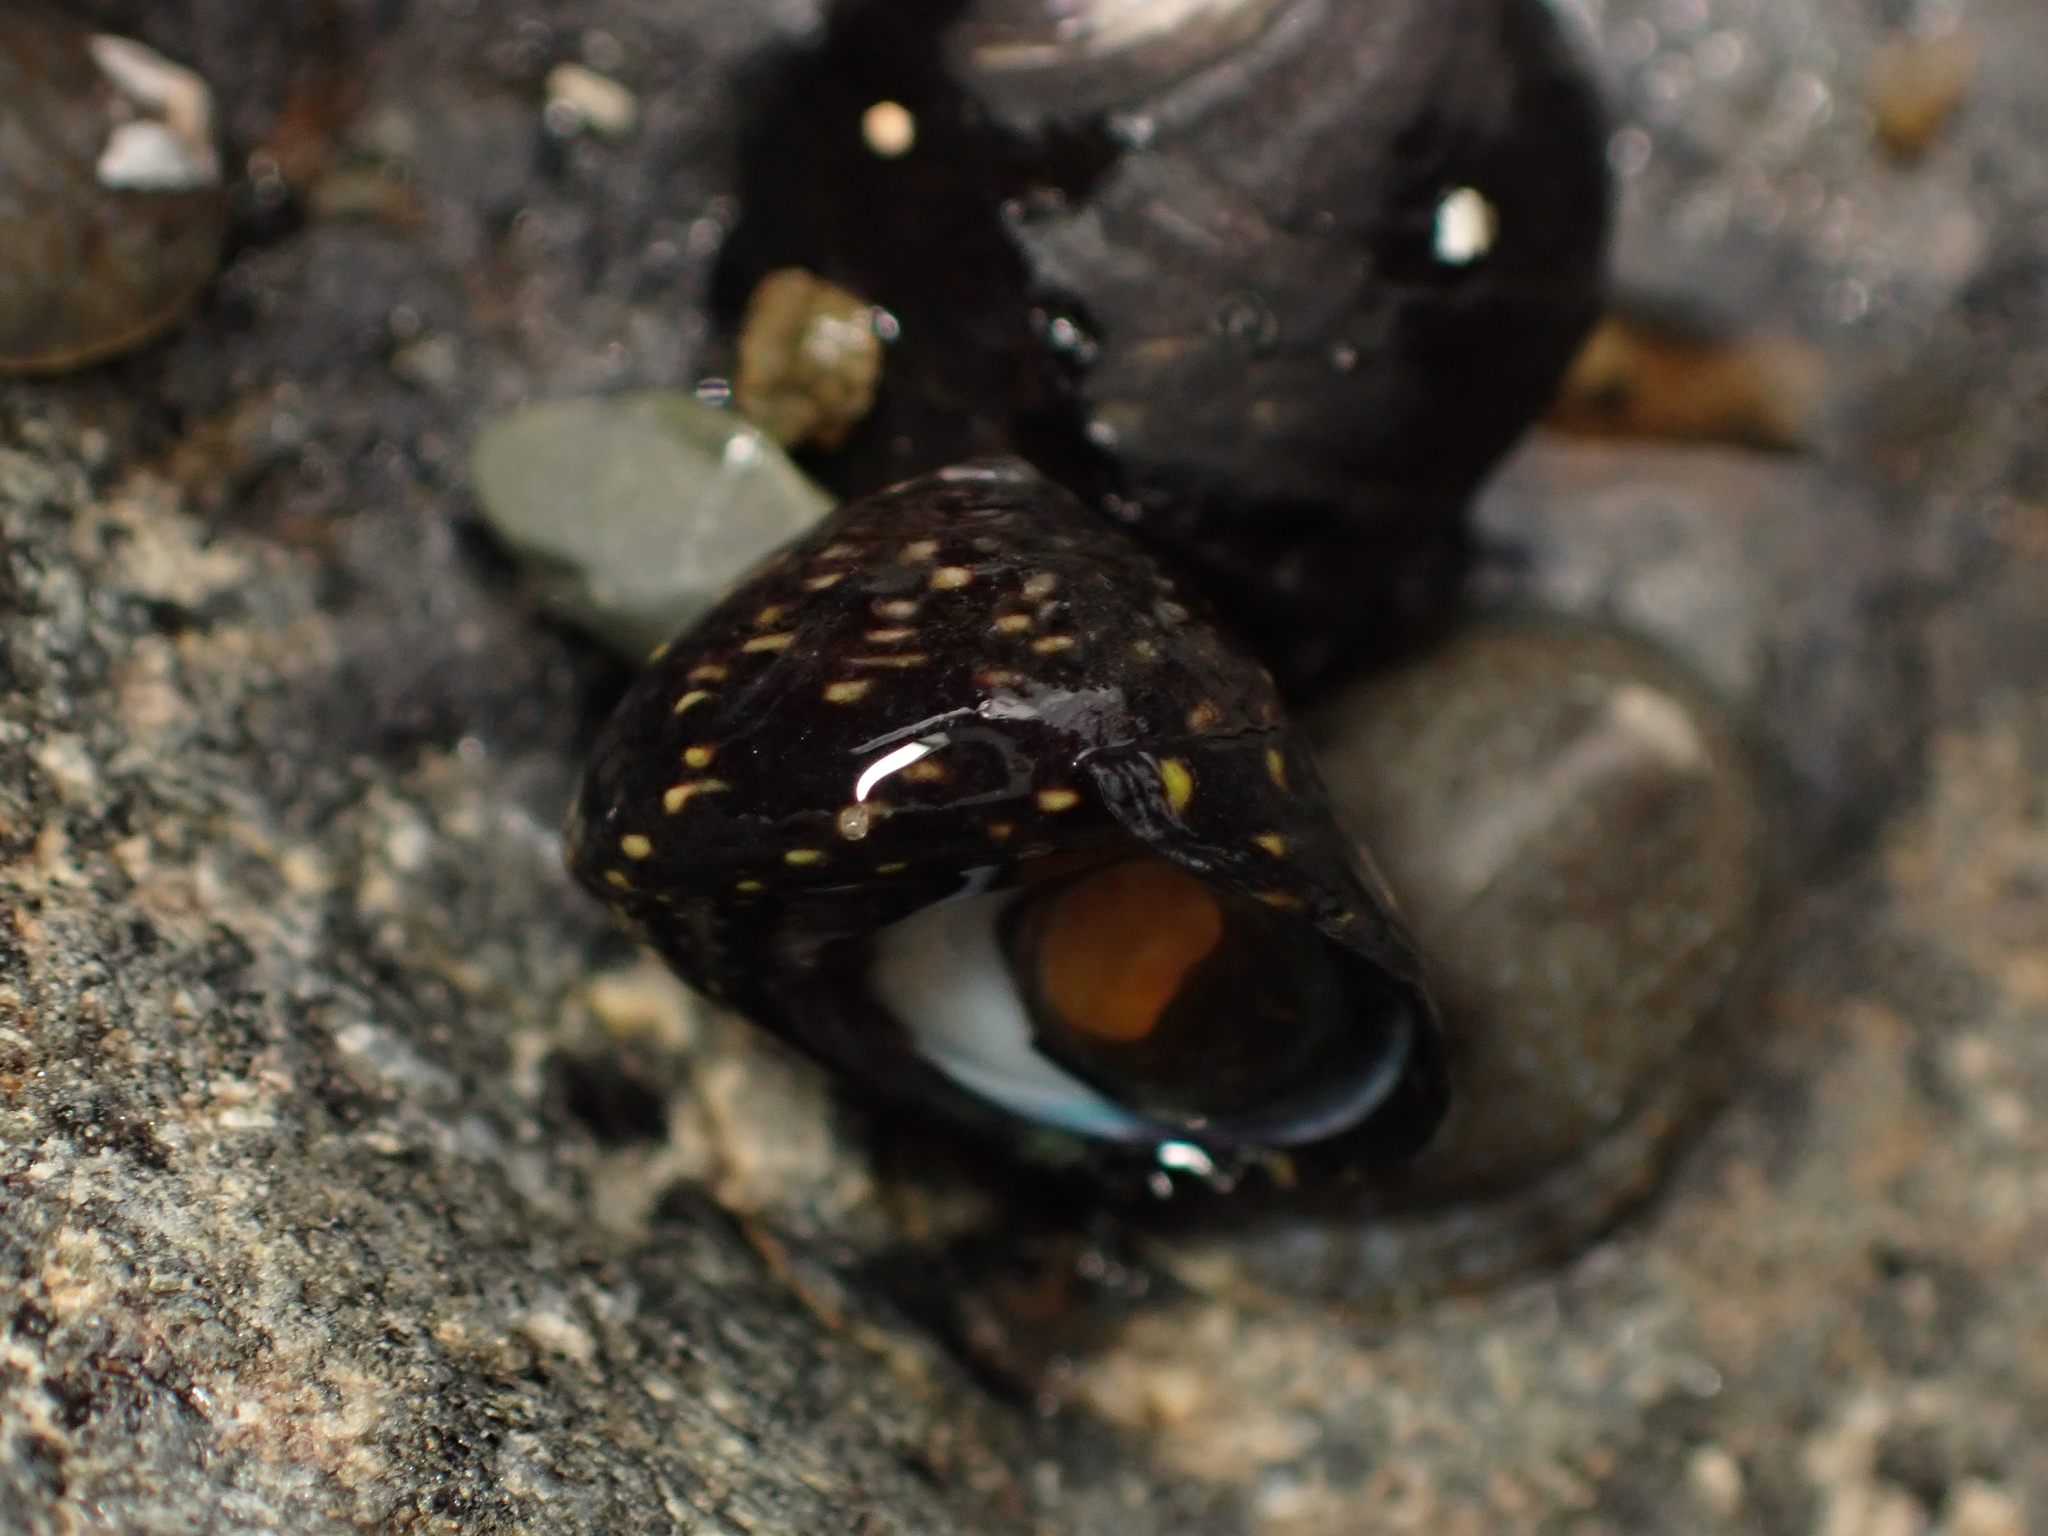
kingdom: Animalia
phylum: Mollusca
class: Gastropoda
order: Trochida
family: Trochidae
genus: Diloma
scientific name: Diloma aridum
